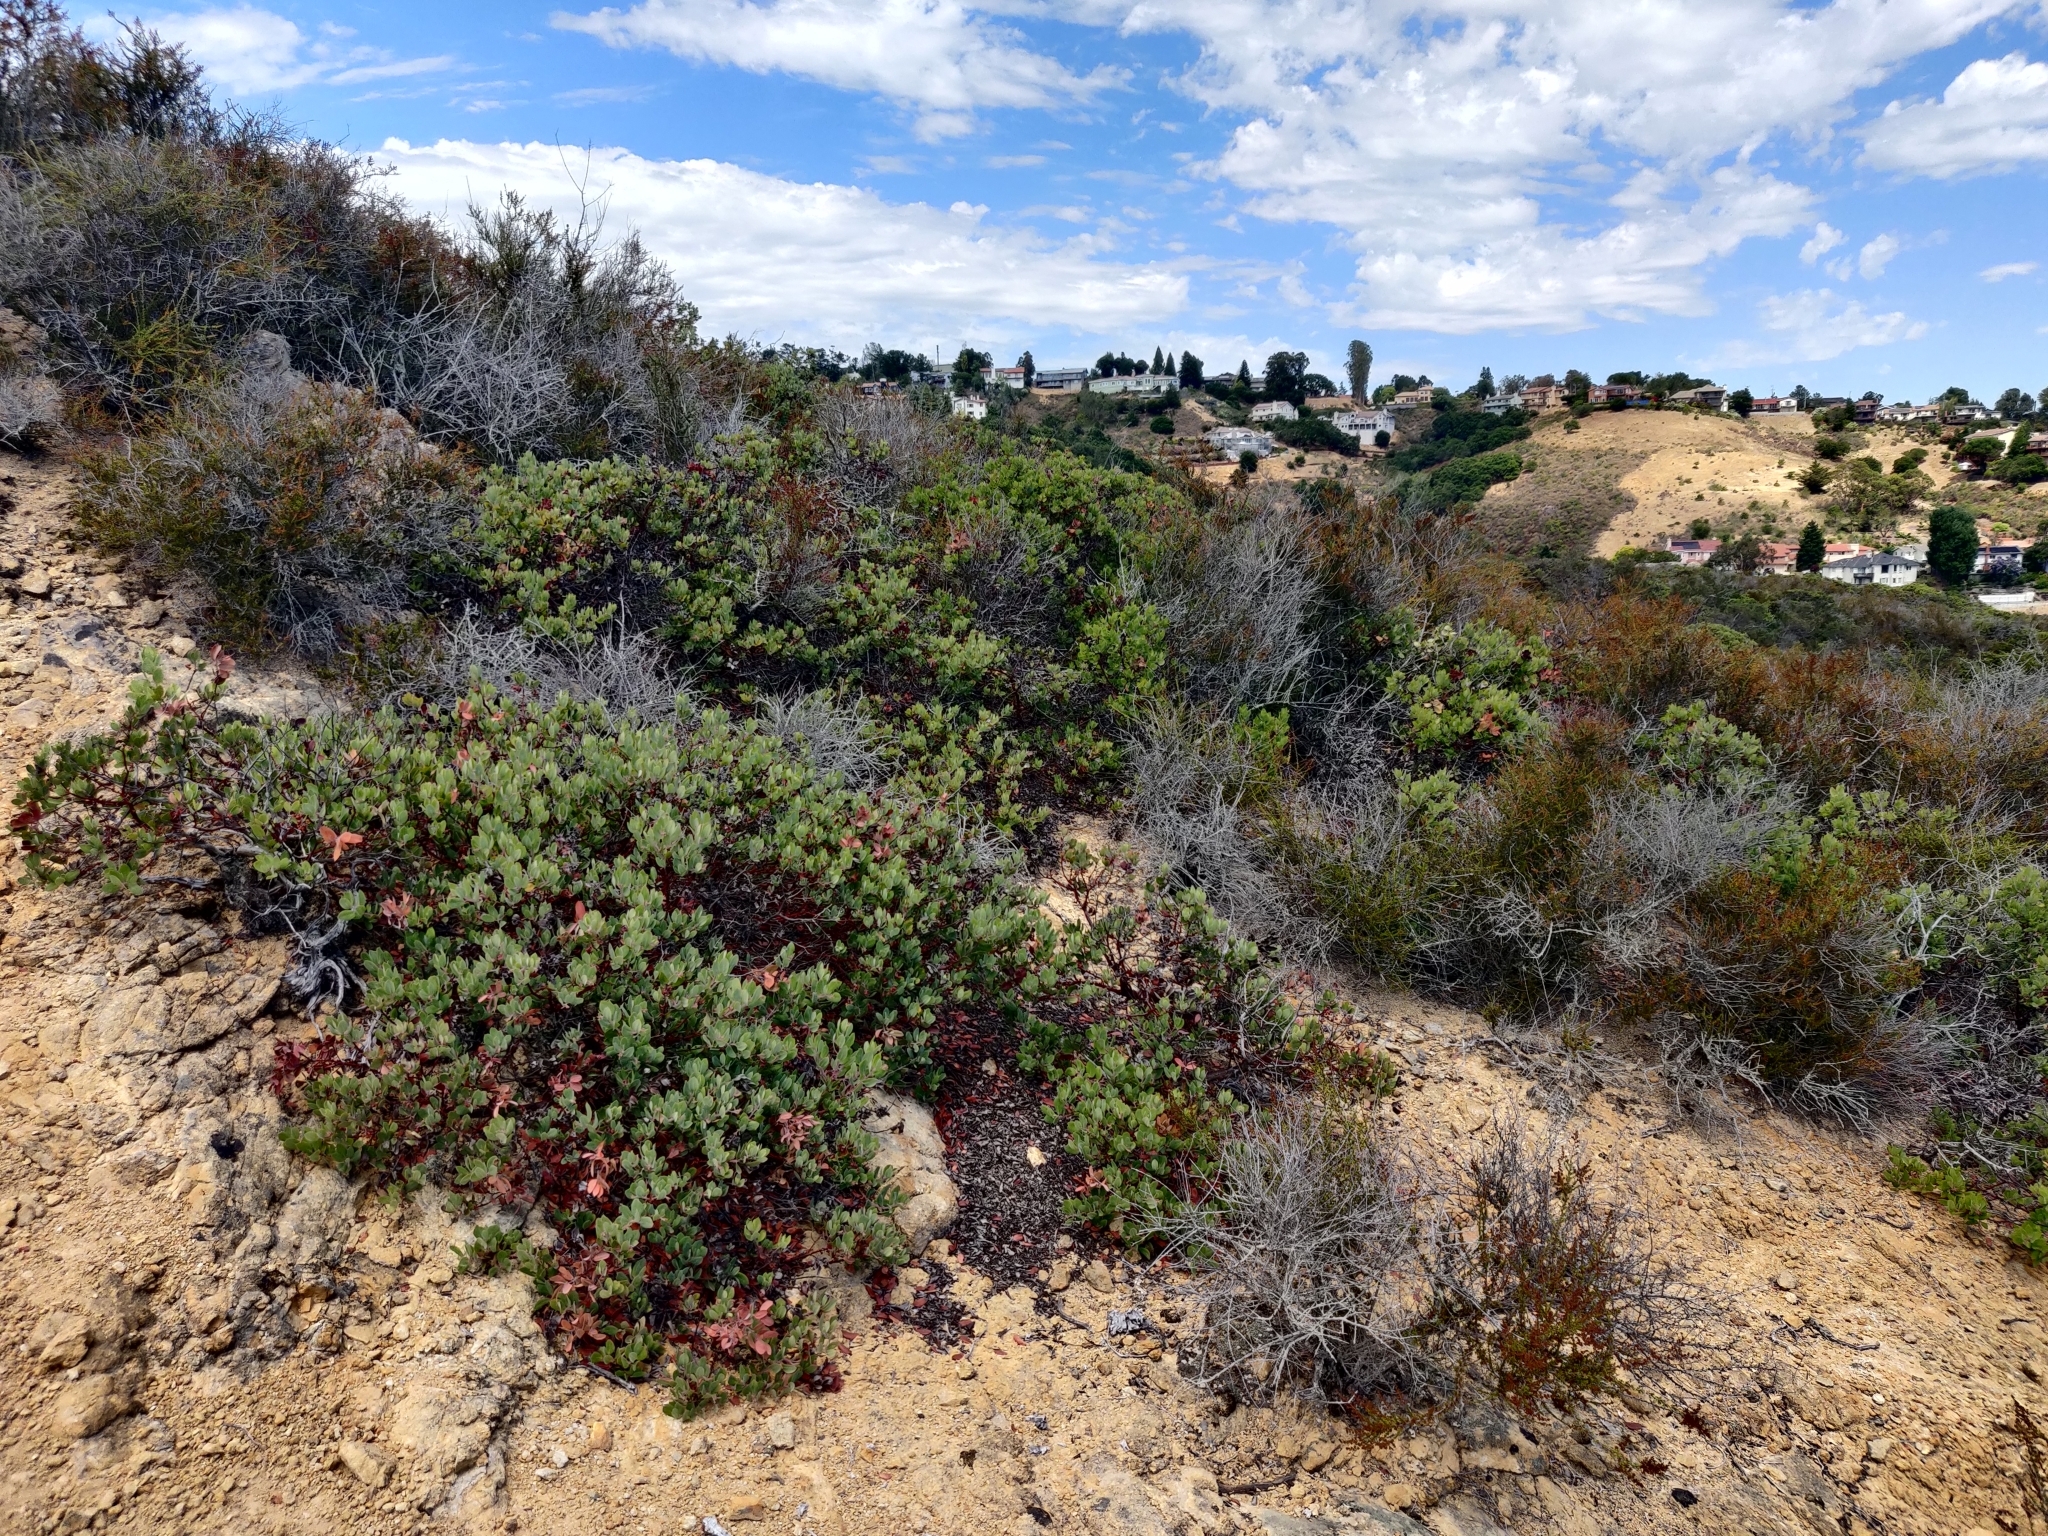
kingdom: Plantae
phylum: Tracheophyta
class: Magnoliopsida
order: Ericales
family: Ericaceae
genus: Arctostaphylos
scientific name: Arctostaphylos crustacea
